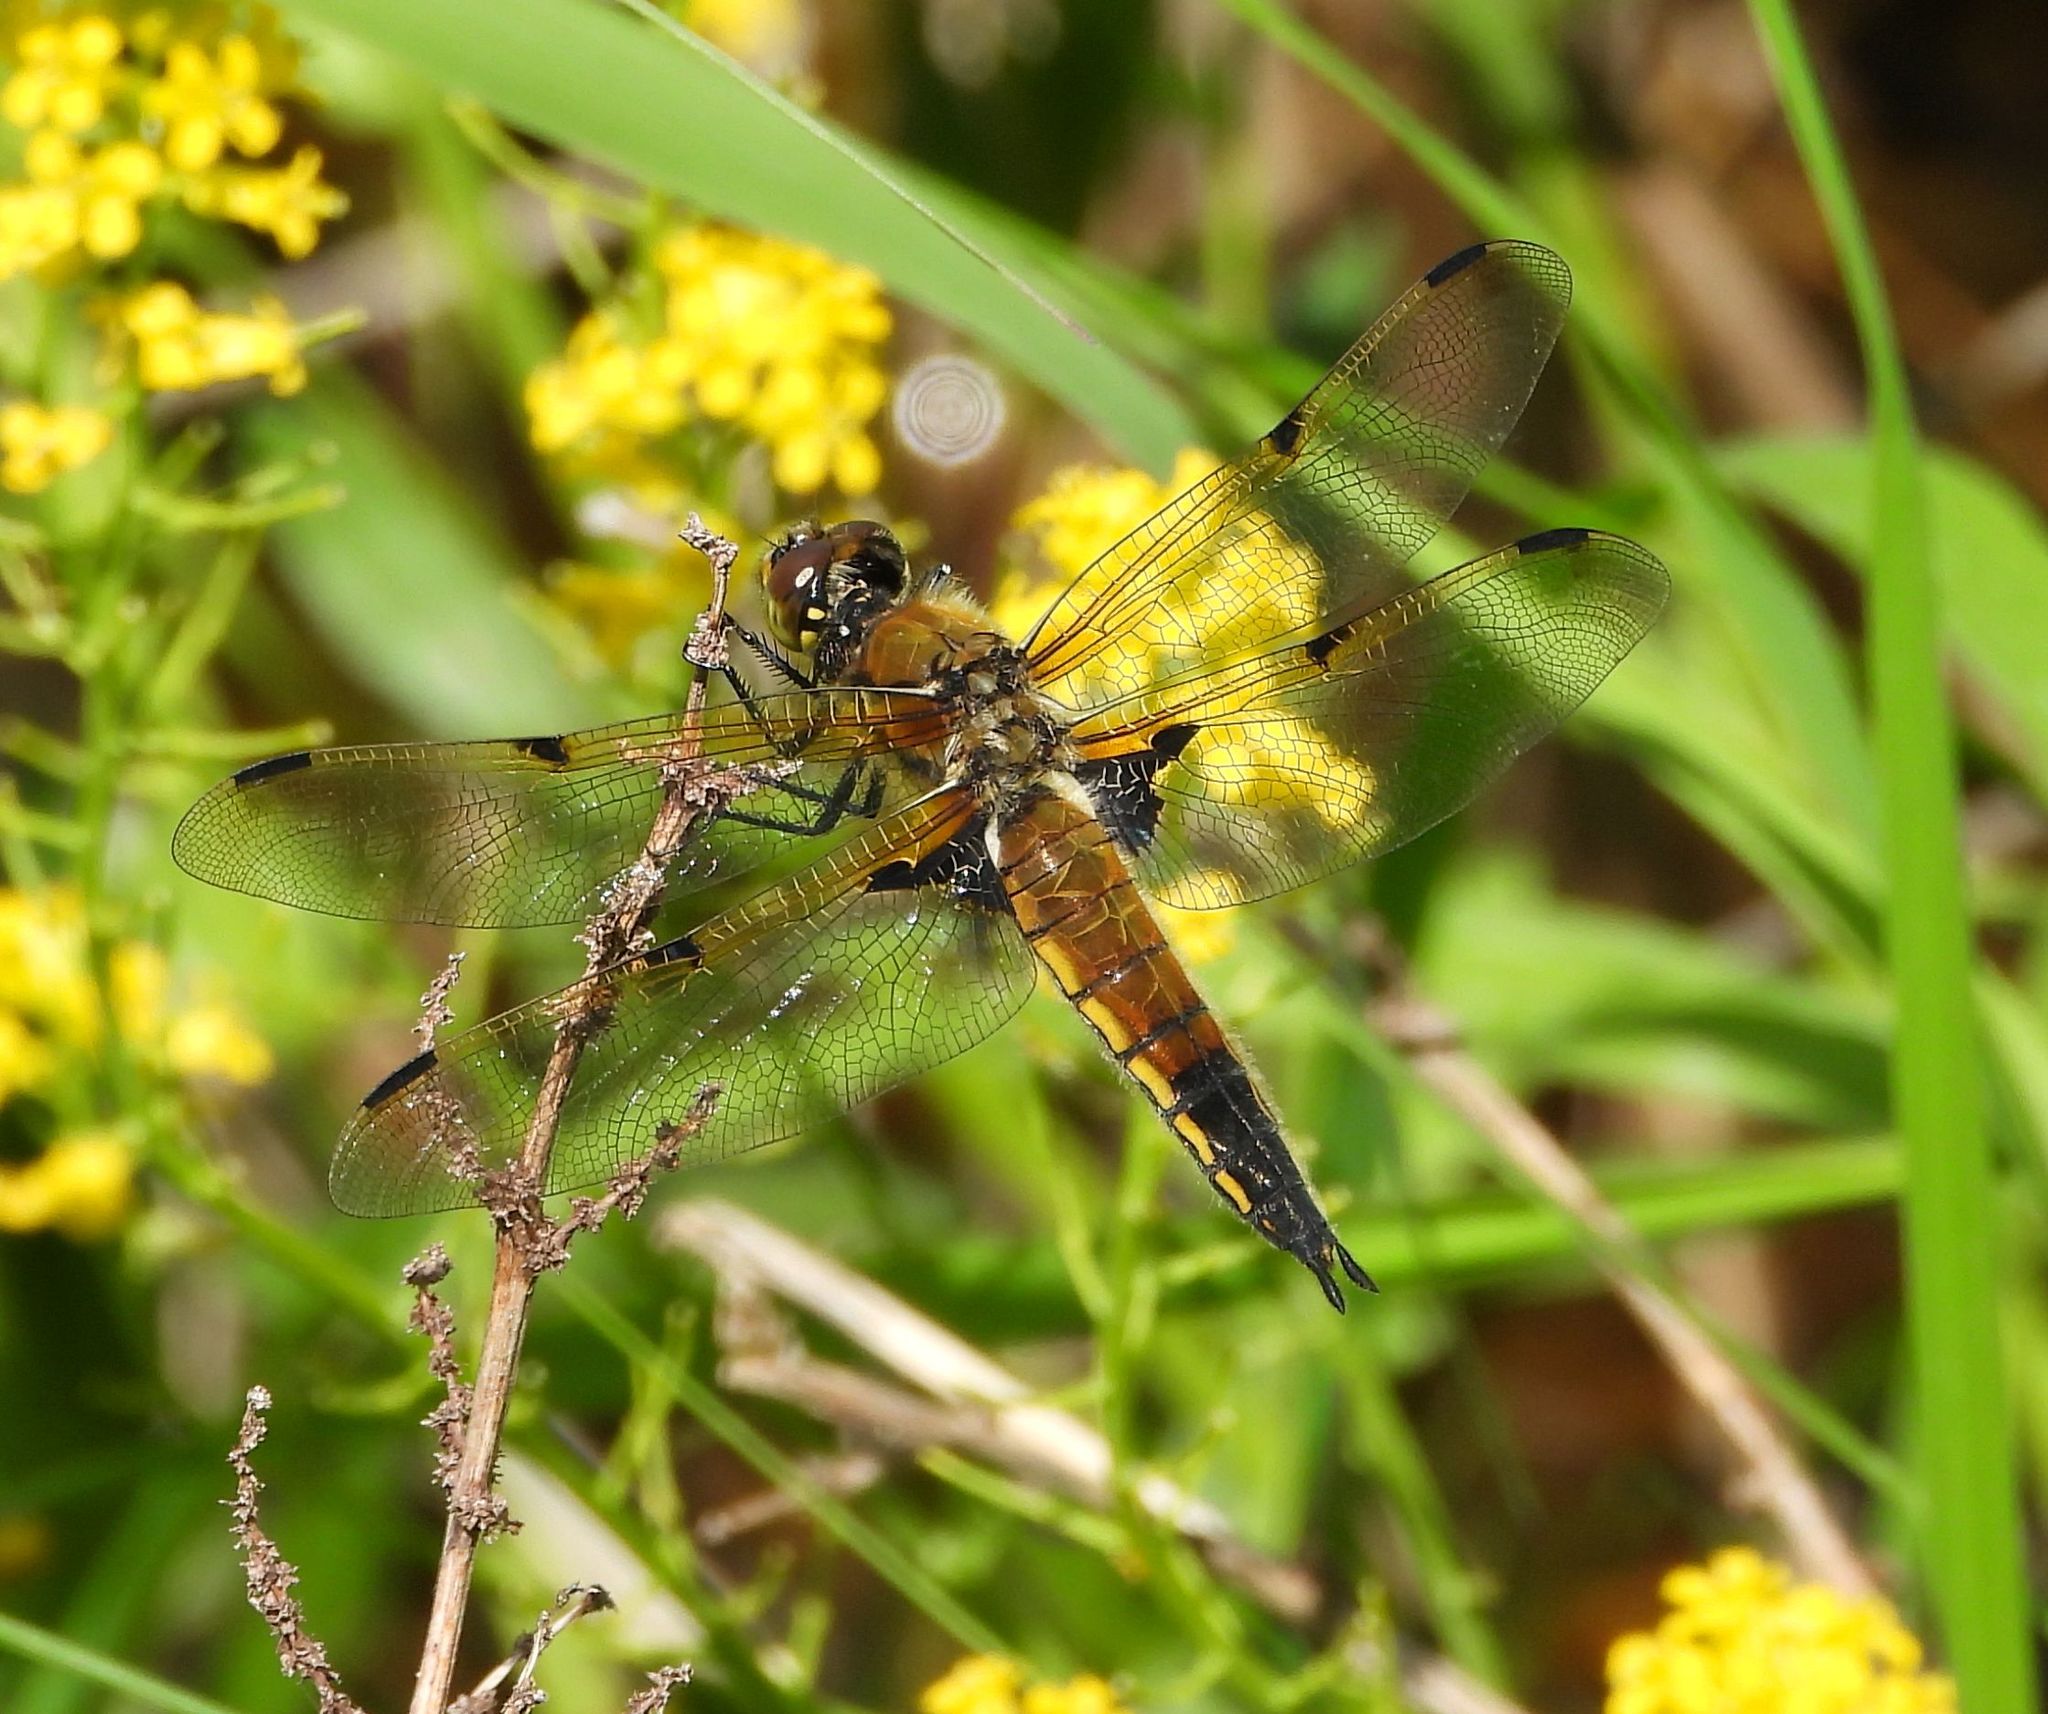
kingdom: Animalia
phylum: Arthropoda
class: Insecta
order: Odonata
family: Libellulidae
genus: Libellula
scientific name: Libellula quadrimaculata
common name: Four-spotted chaser
